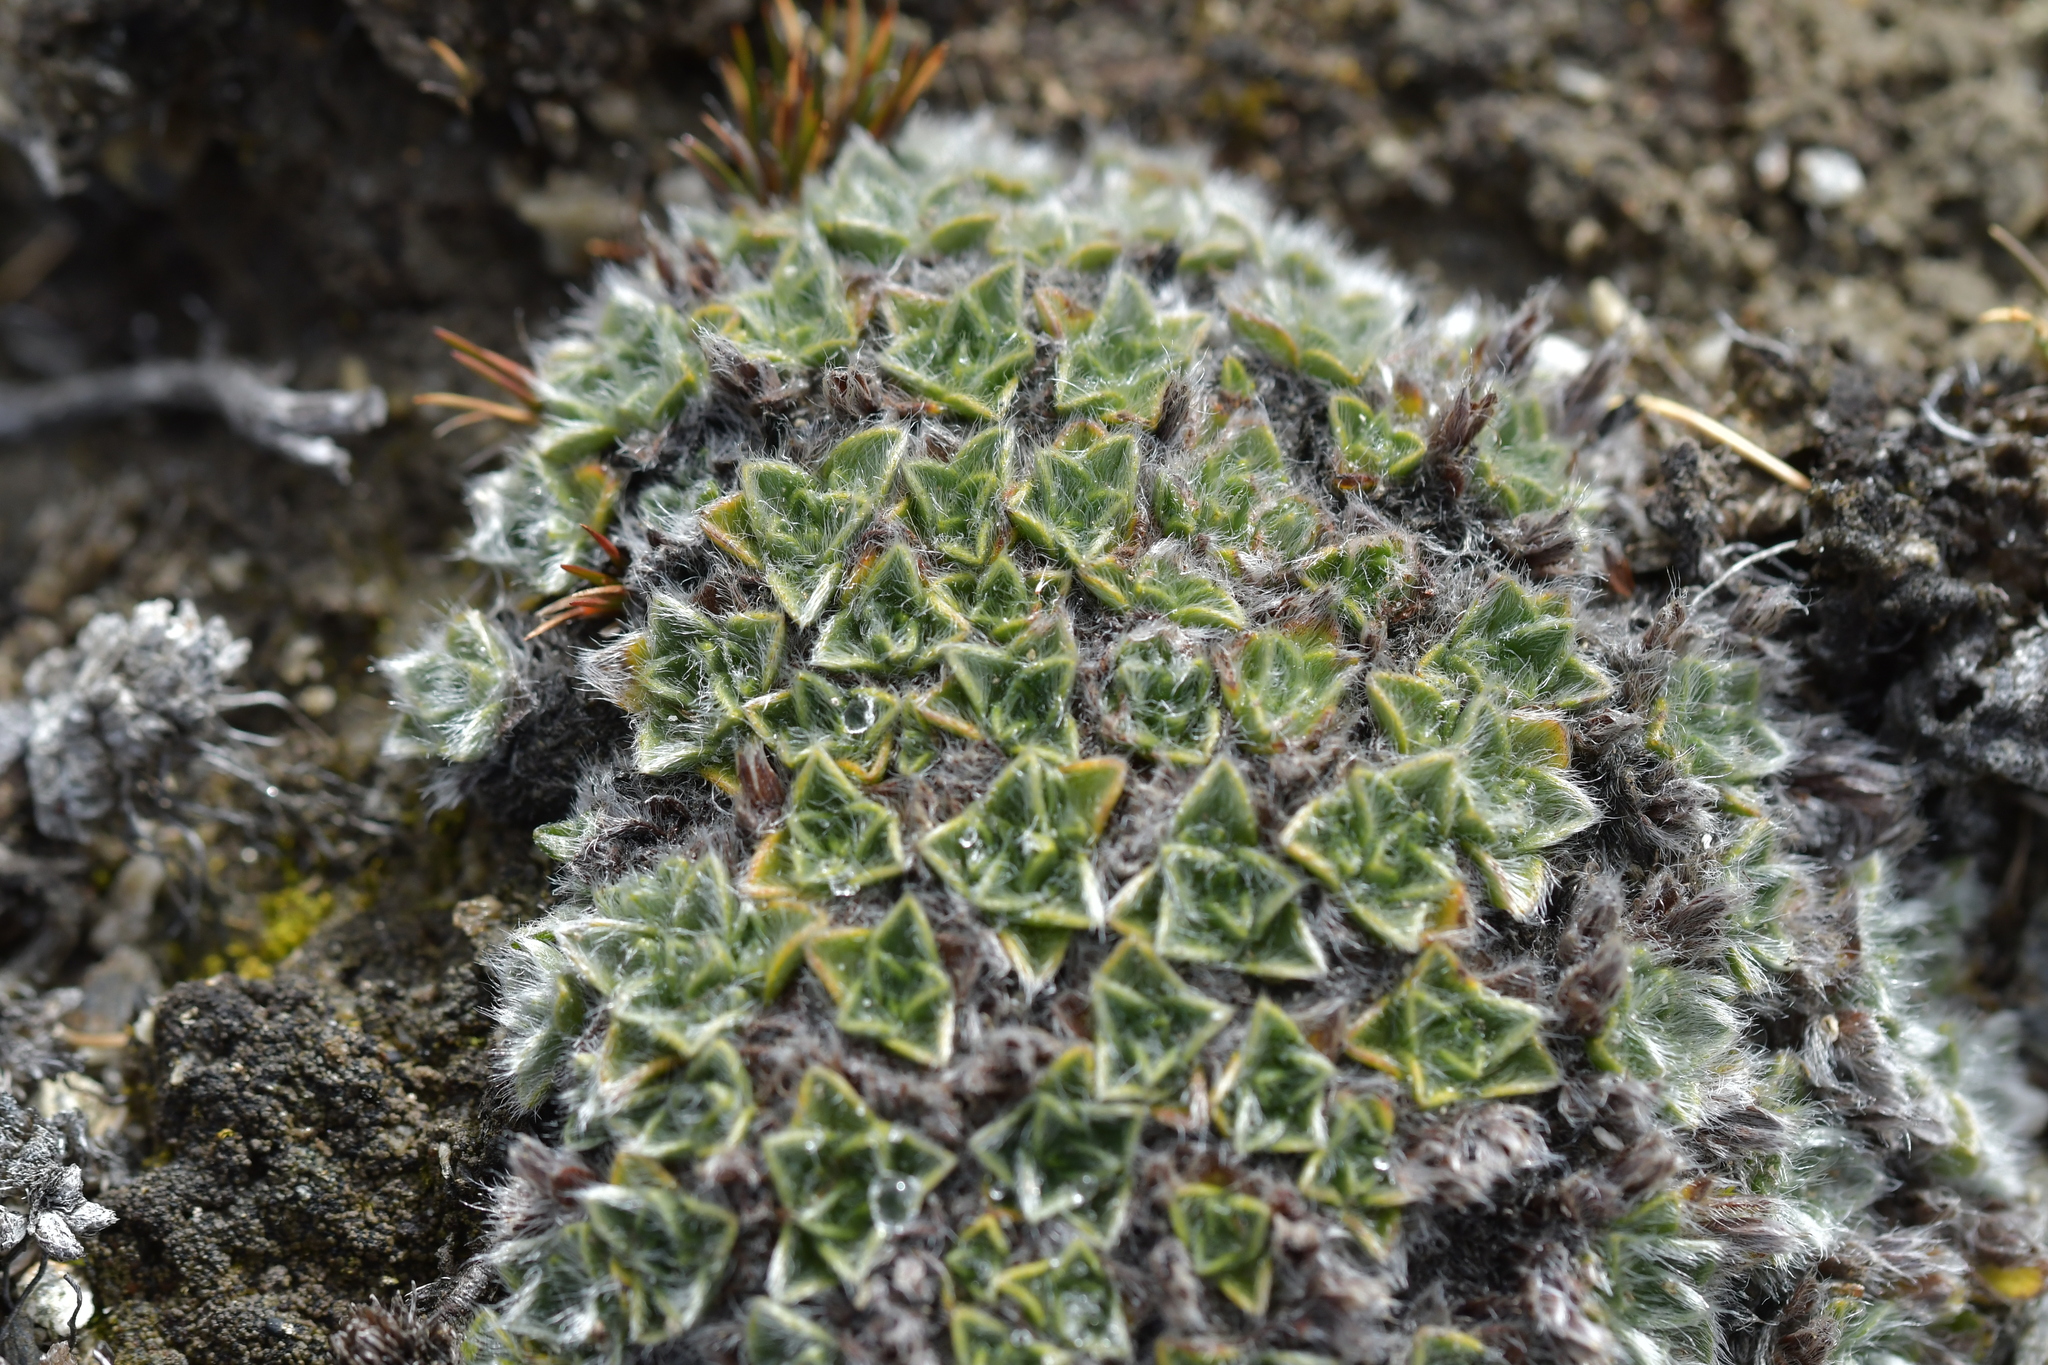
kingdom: Plantae
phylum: Tracheophyta
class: Magnoliopsida
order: Boraginales
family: Boraginaceae
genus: Myosotis
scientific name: Myosotis pulvinaris
